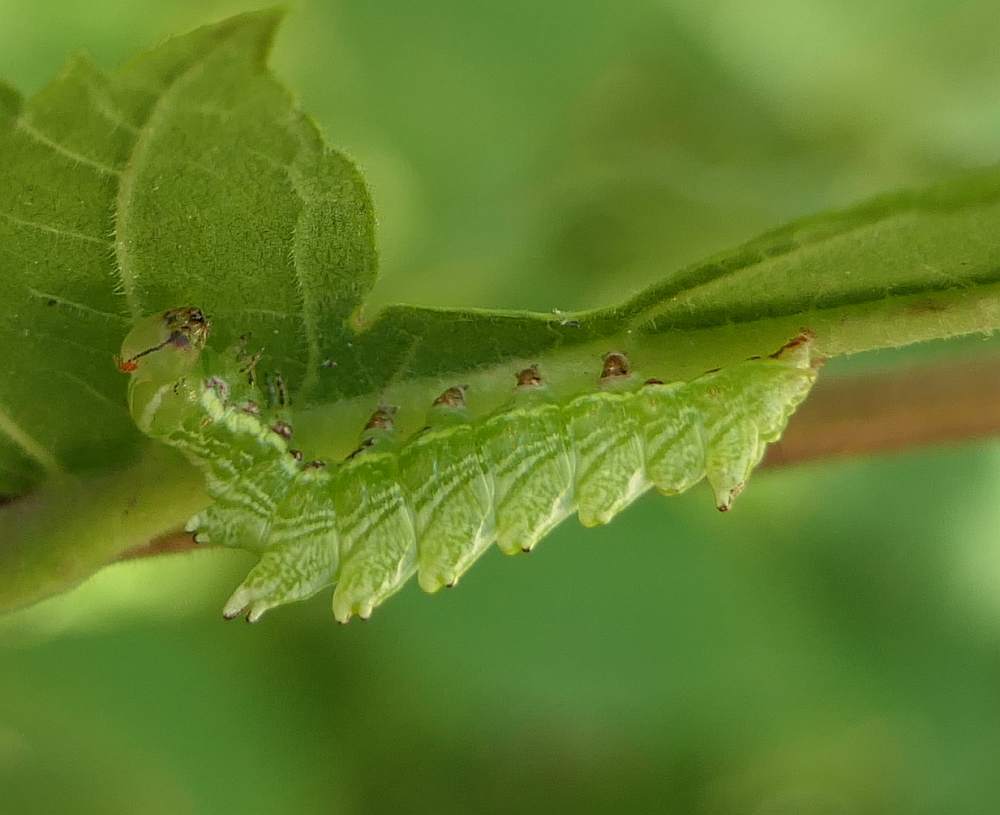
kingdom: Animalia
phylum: Arthropoda
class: Insecta
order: Lepidoptera
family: Notodontidae
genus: Nerice
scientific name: Nerice bidentata
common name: Double-toothed prominent
